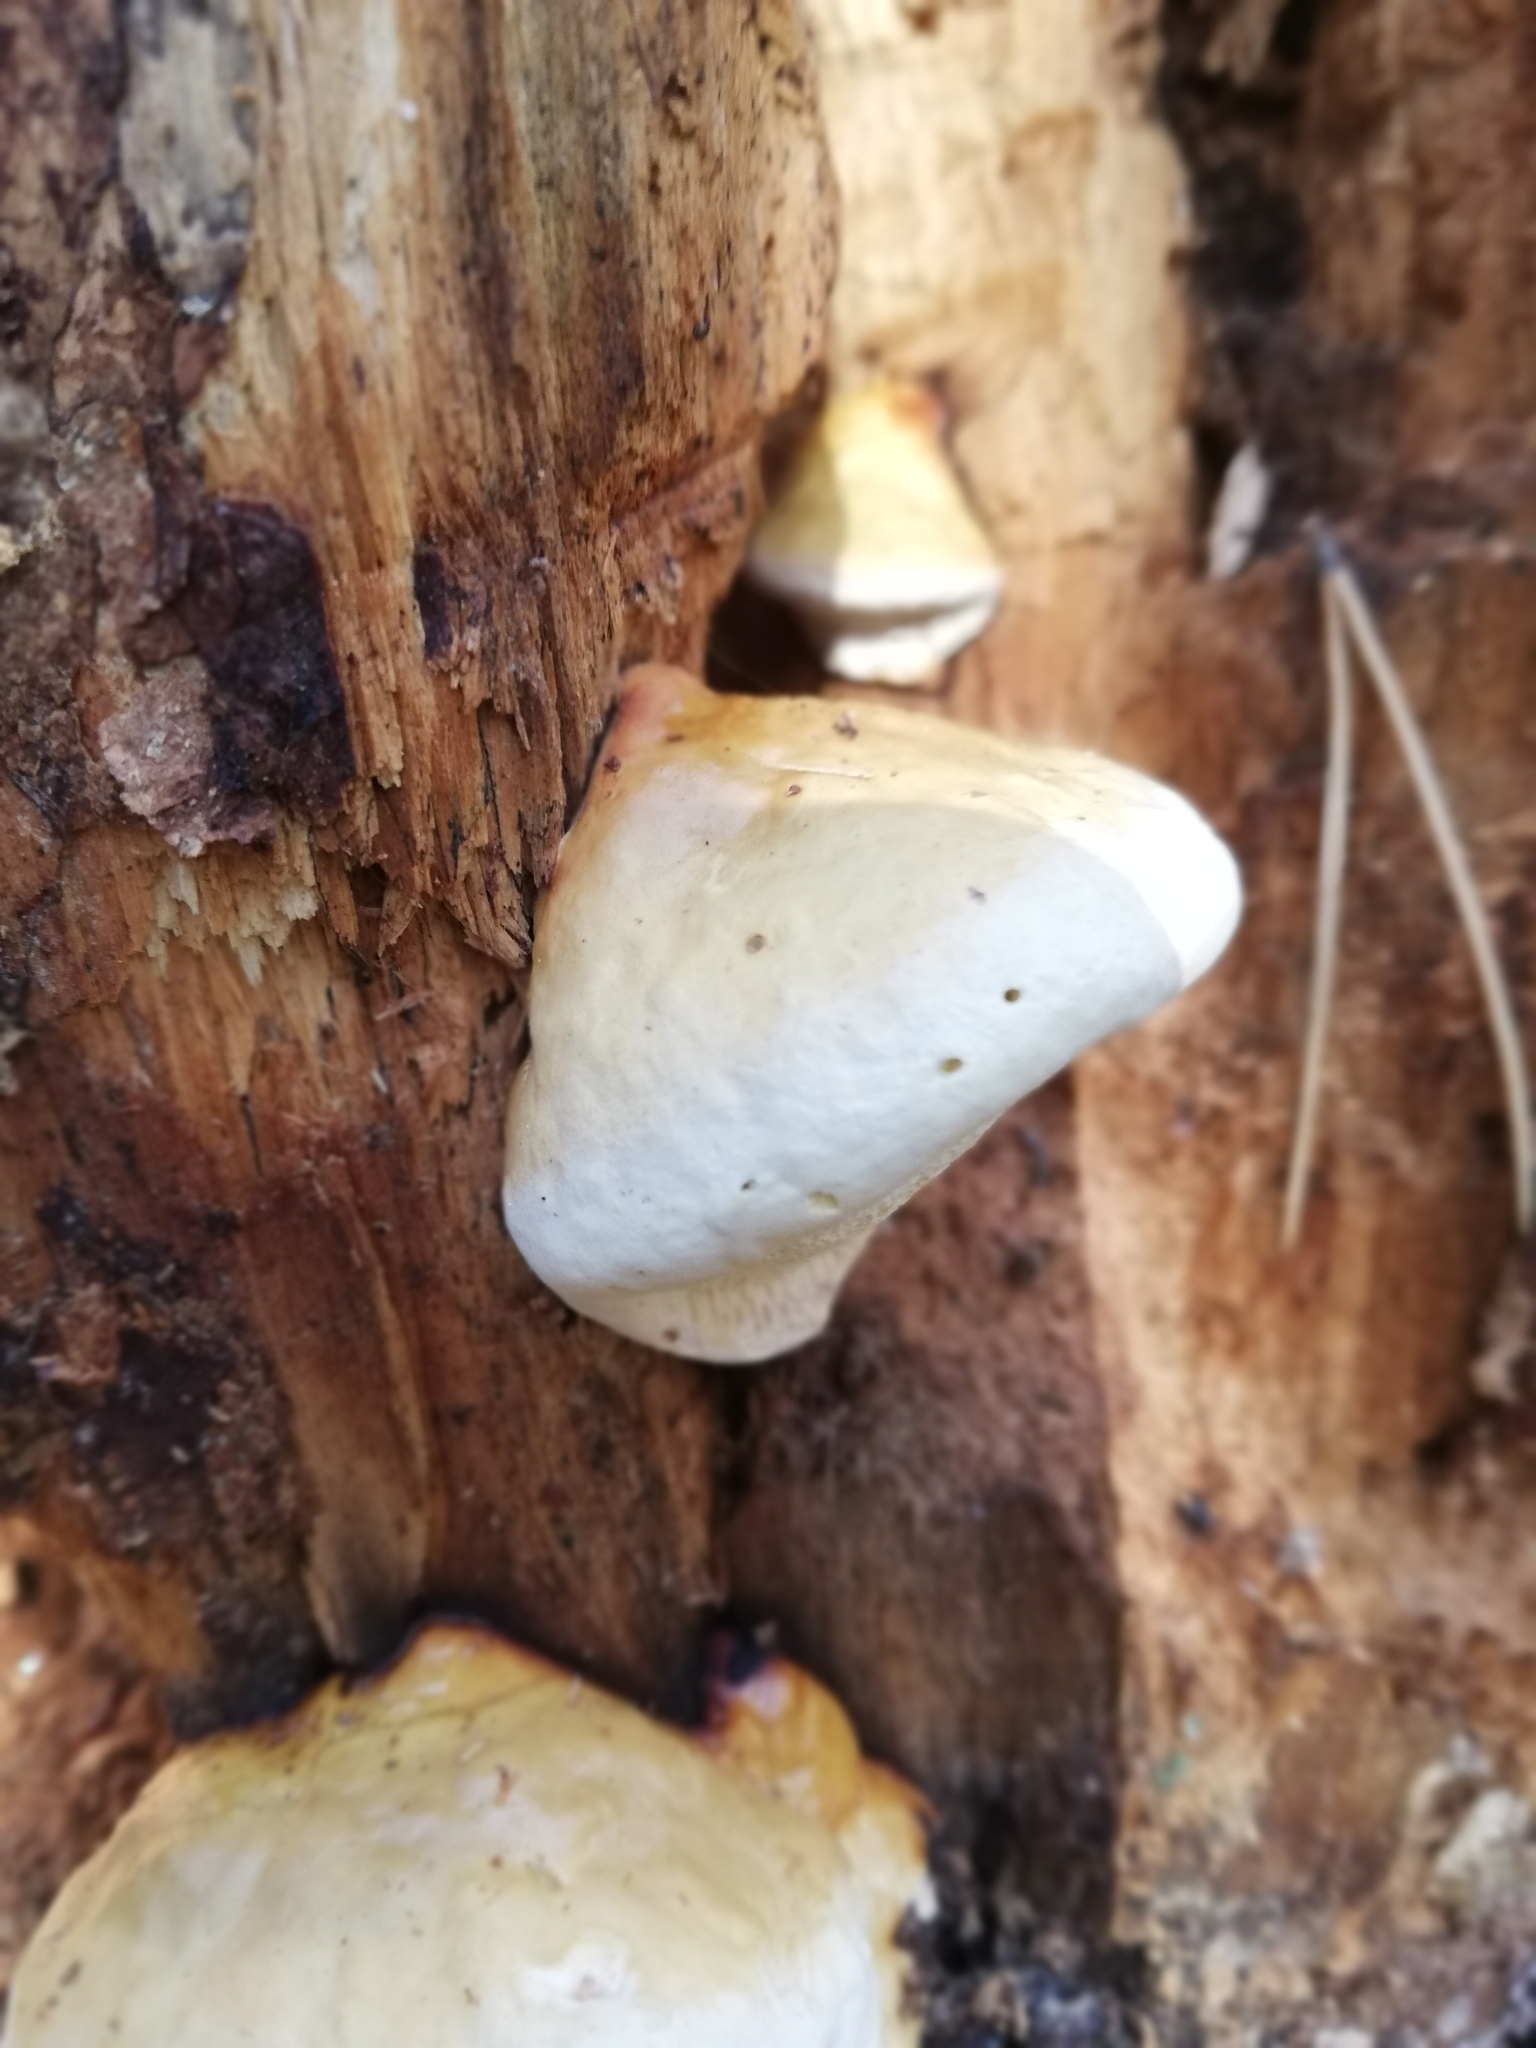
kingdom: Fungi
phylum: Basidiomycota
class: Agaricomycetes
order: Polyporales
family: Fomitopsidaceae
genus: Fomitopsis
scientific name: Fomitopsis pinicola
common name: Red-belted bracket
